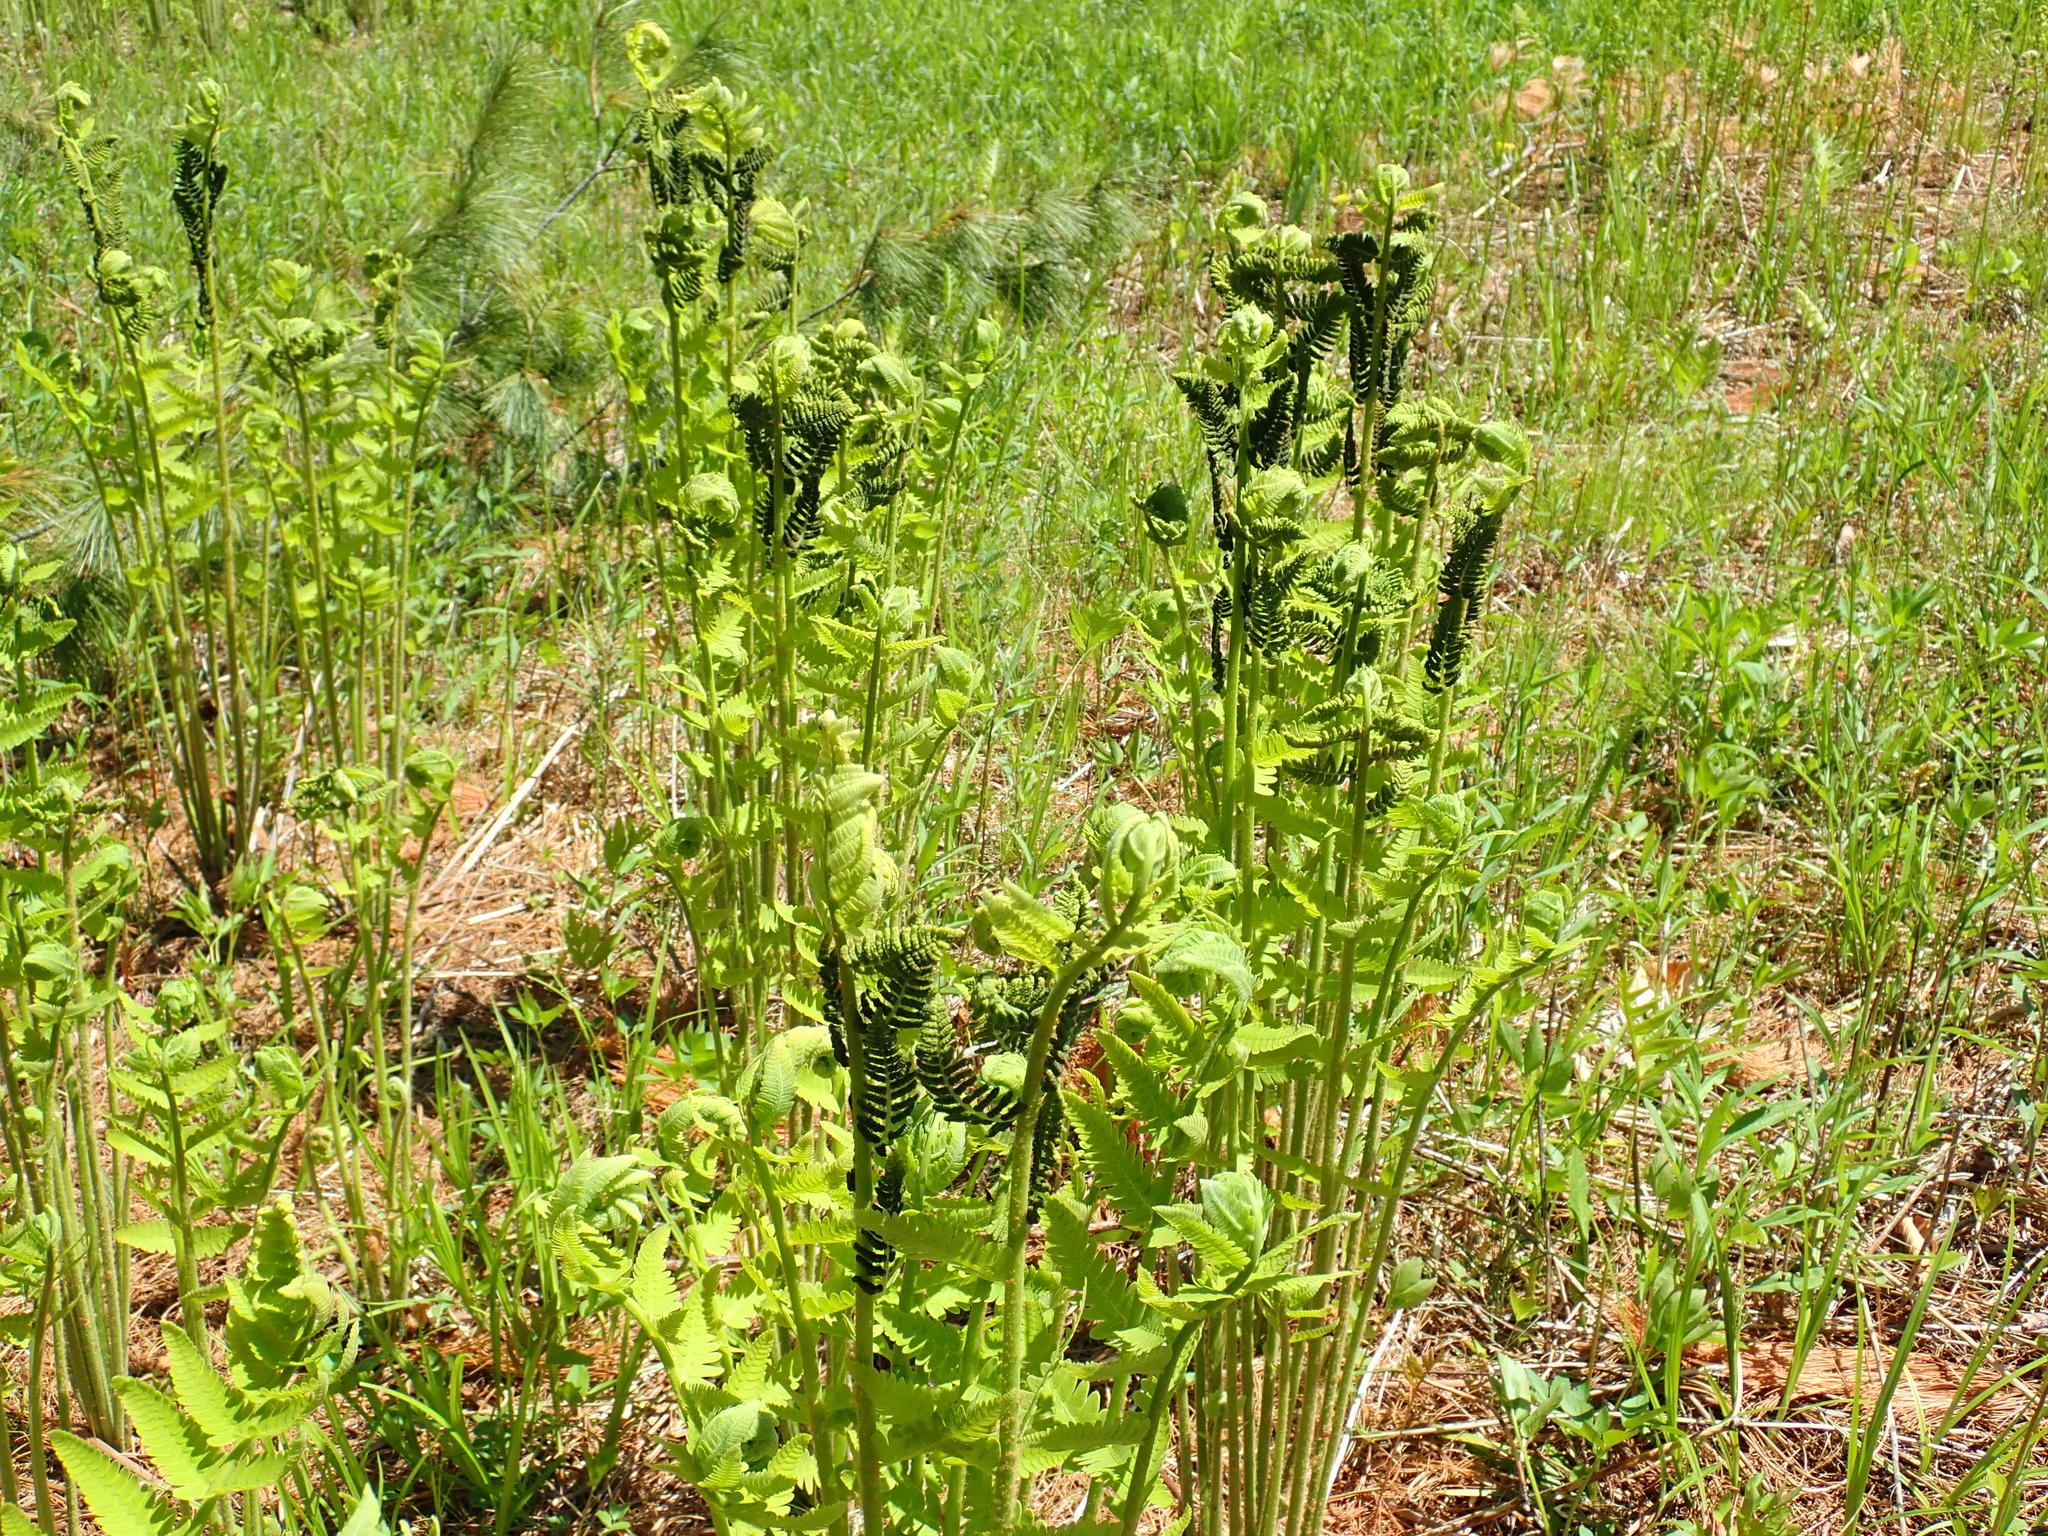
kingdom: Plantae
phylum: Tracheophyta
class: Polypodiopsida
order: Osmundales
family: Osmundaceae
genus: Claytosmunda
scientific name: Claytosmunda claytoniana
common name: Clayton's fern
